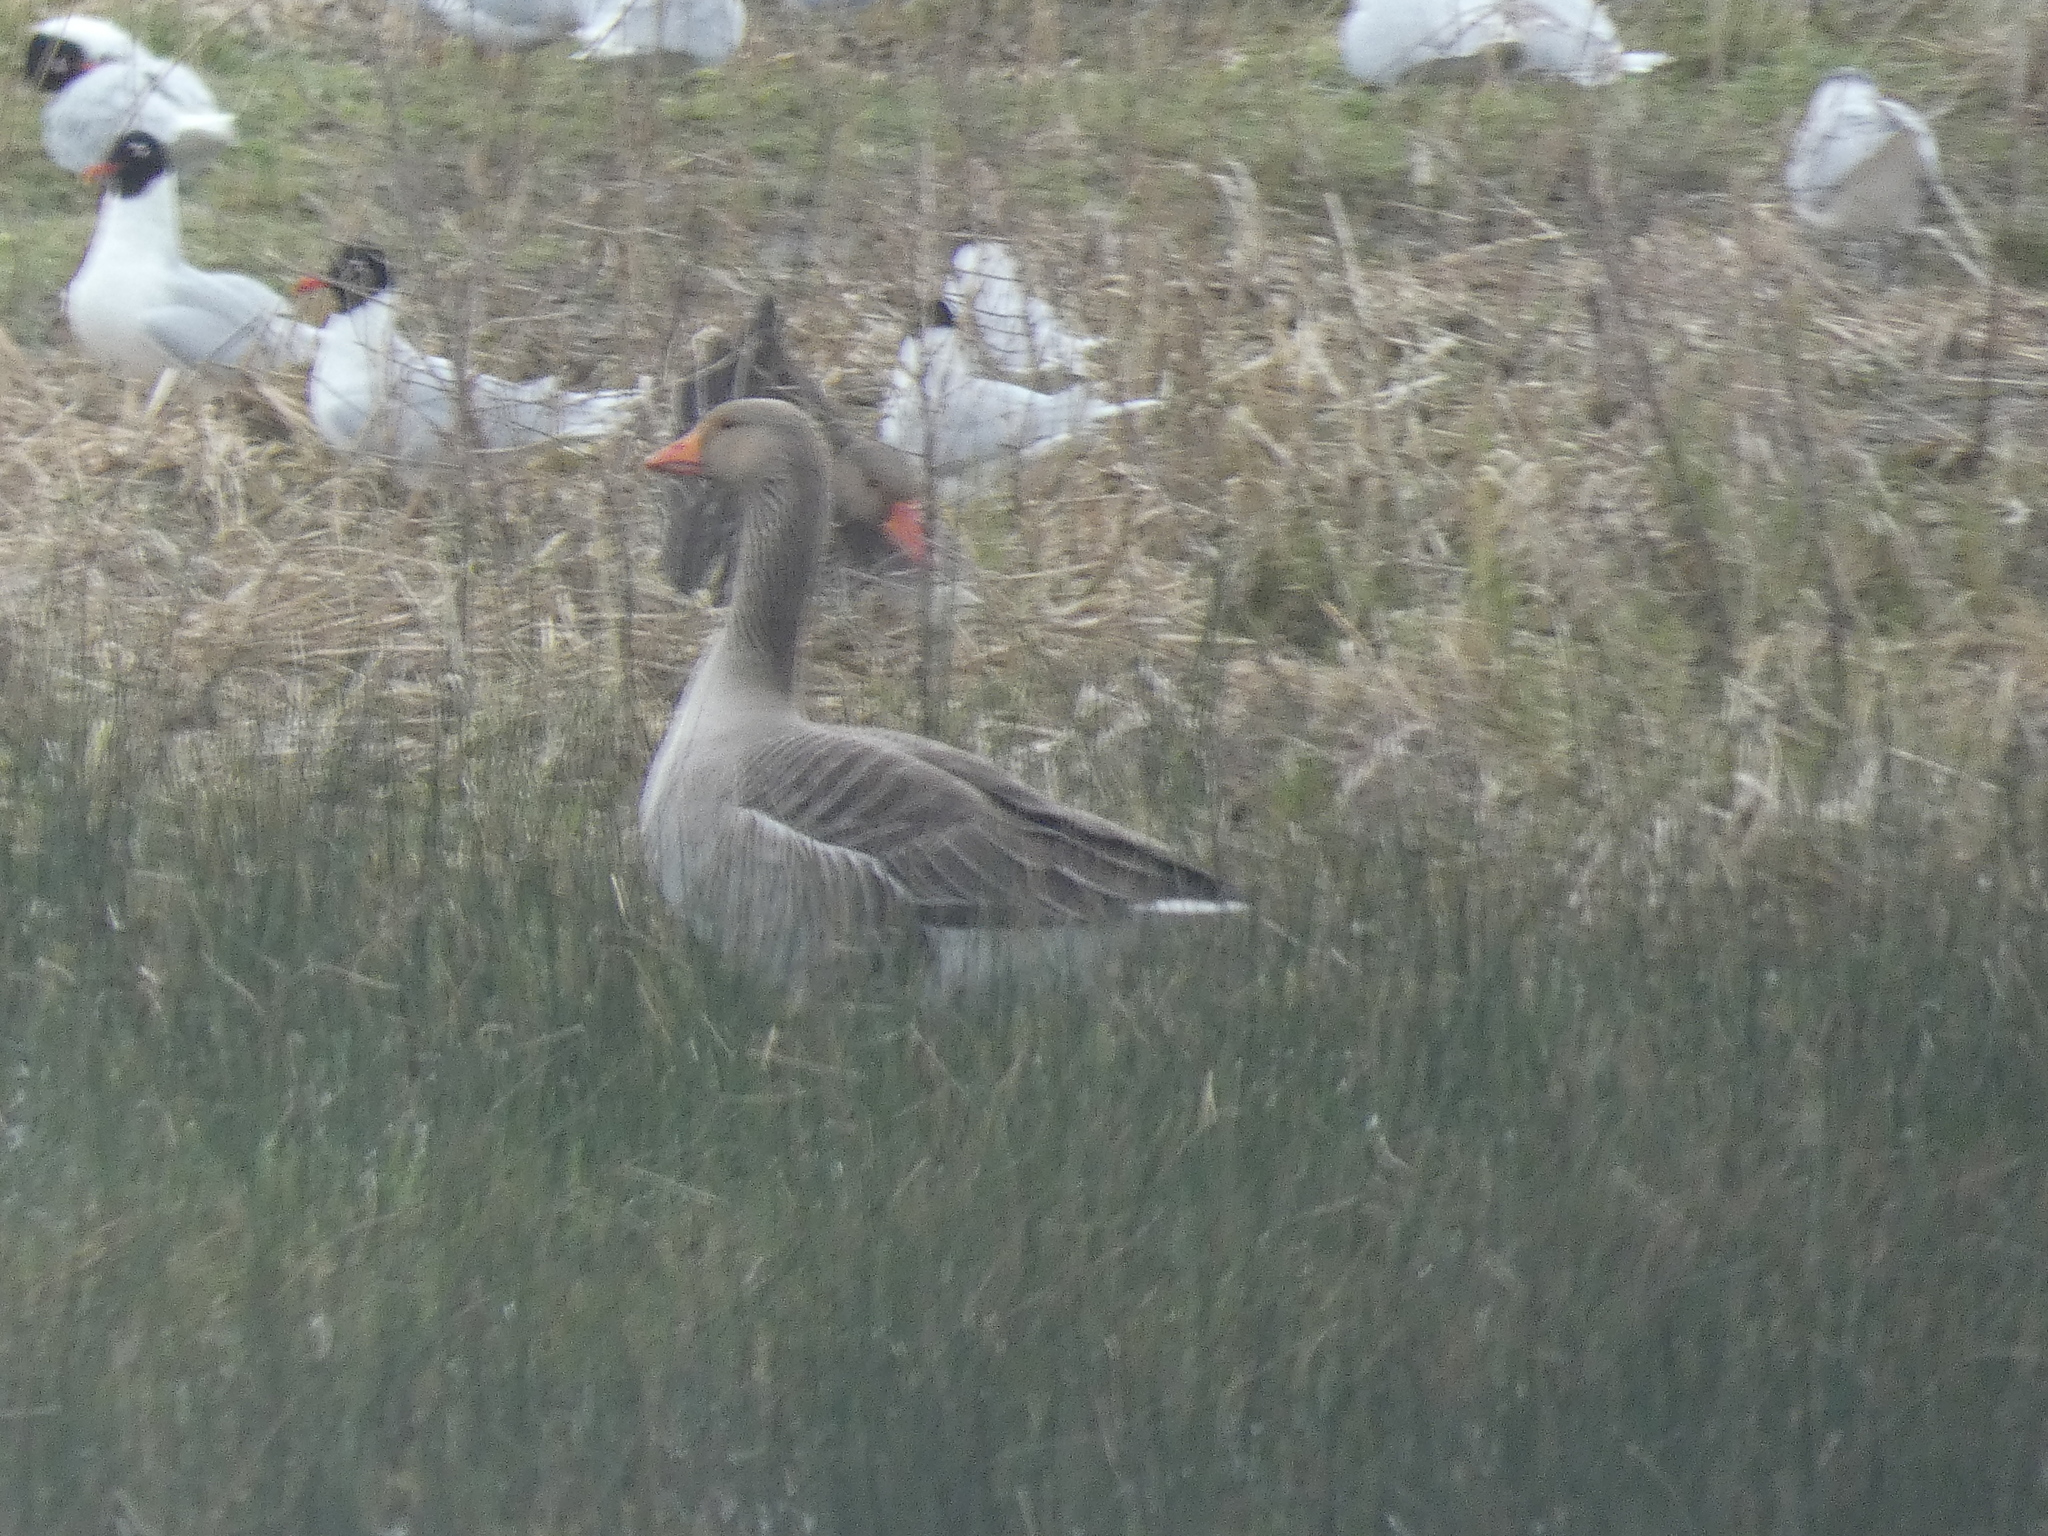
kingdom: Animalia
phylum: Chordata
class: Aves
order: Anseriformes
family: Anatidae
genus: Anser
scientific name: Anser anser
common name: Greylag goose
